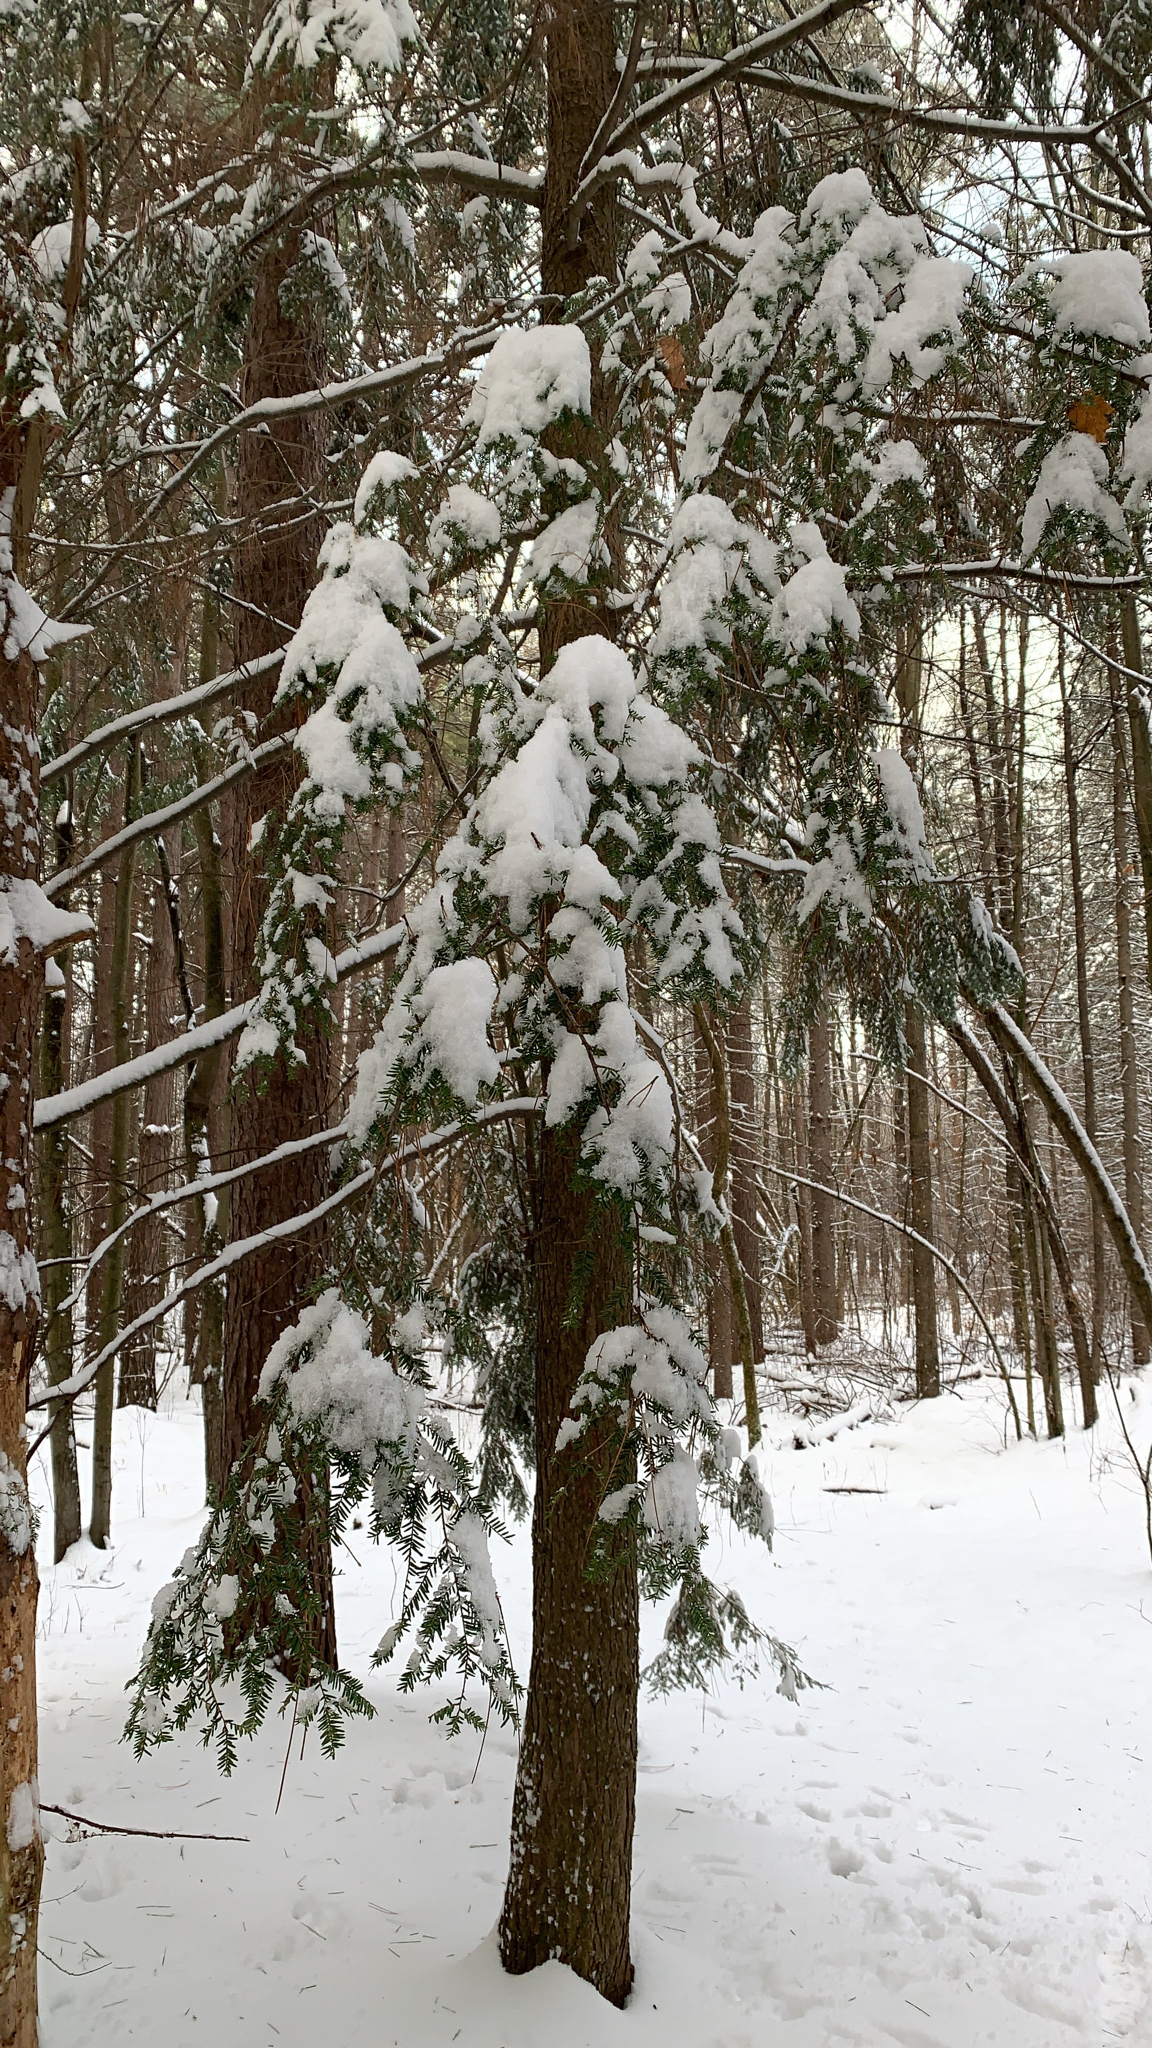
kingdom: Plantae
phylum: Tracheophyta
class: Pinopsida
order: Pinales
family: Pinaceae
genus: Tsuga
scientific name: Tsuga canadensis
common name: Eastern hemlock
